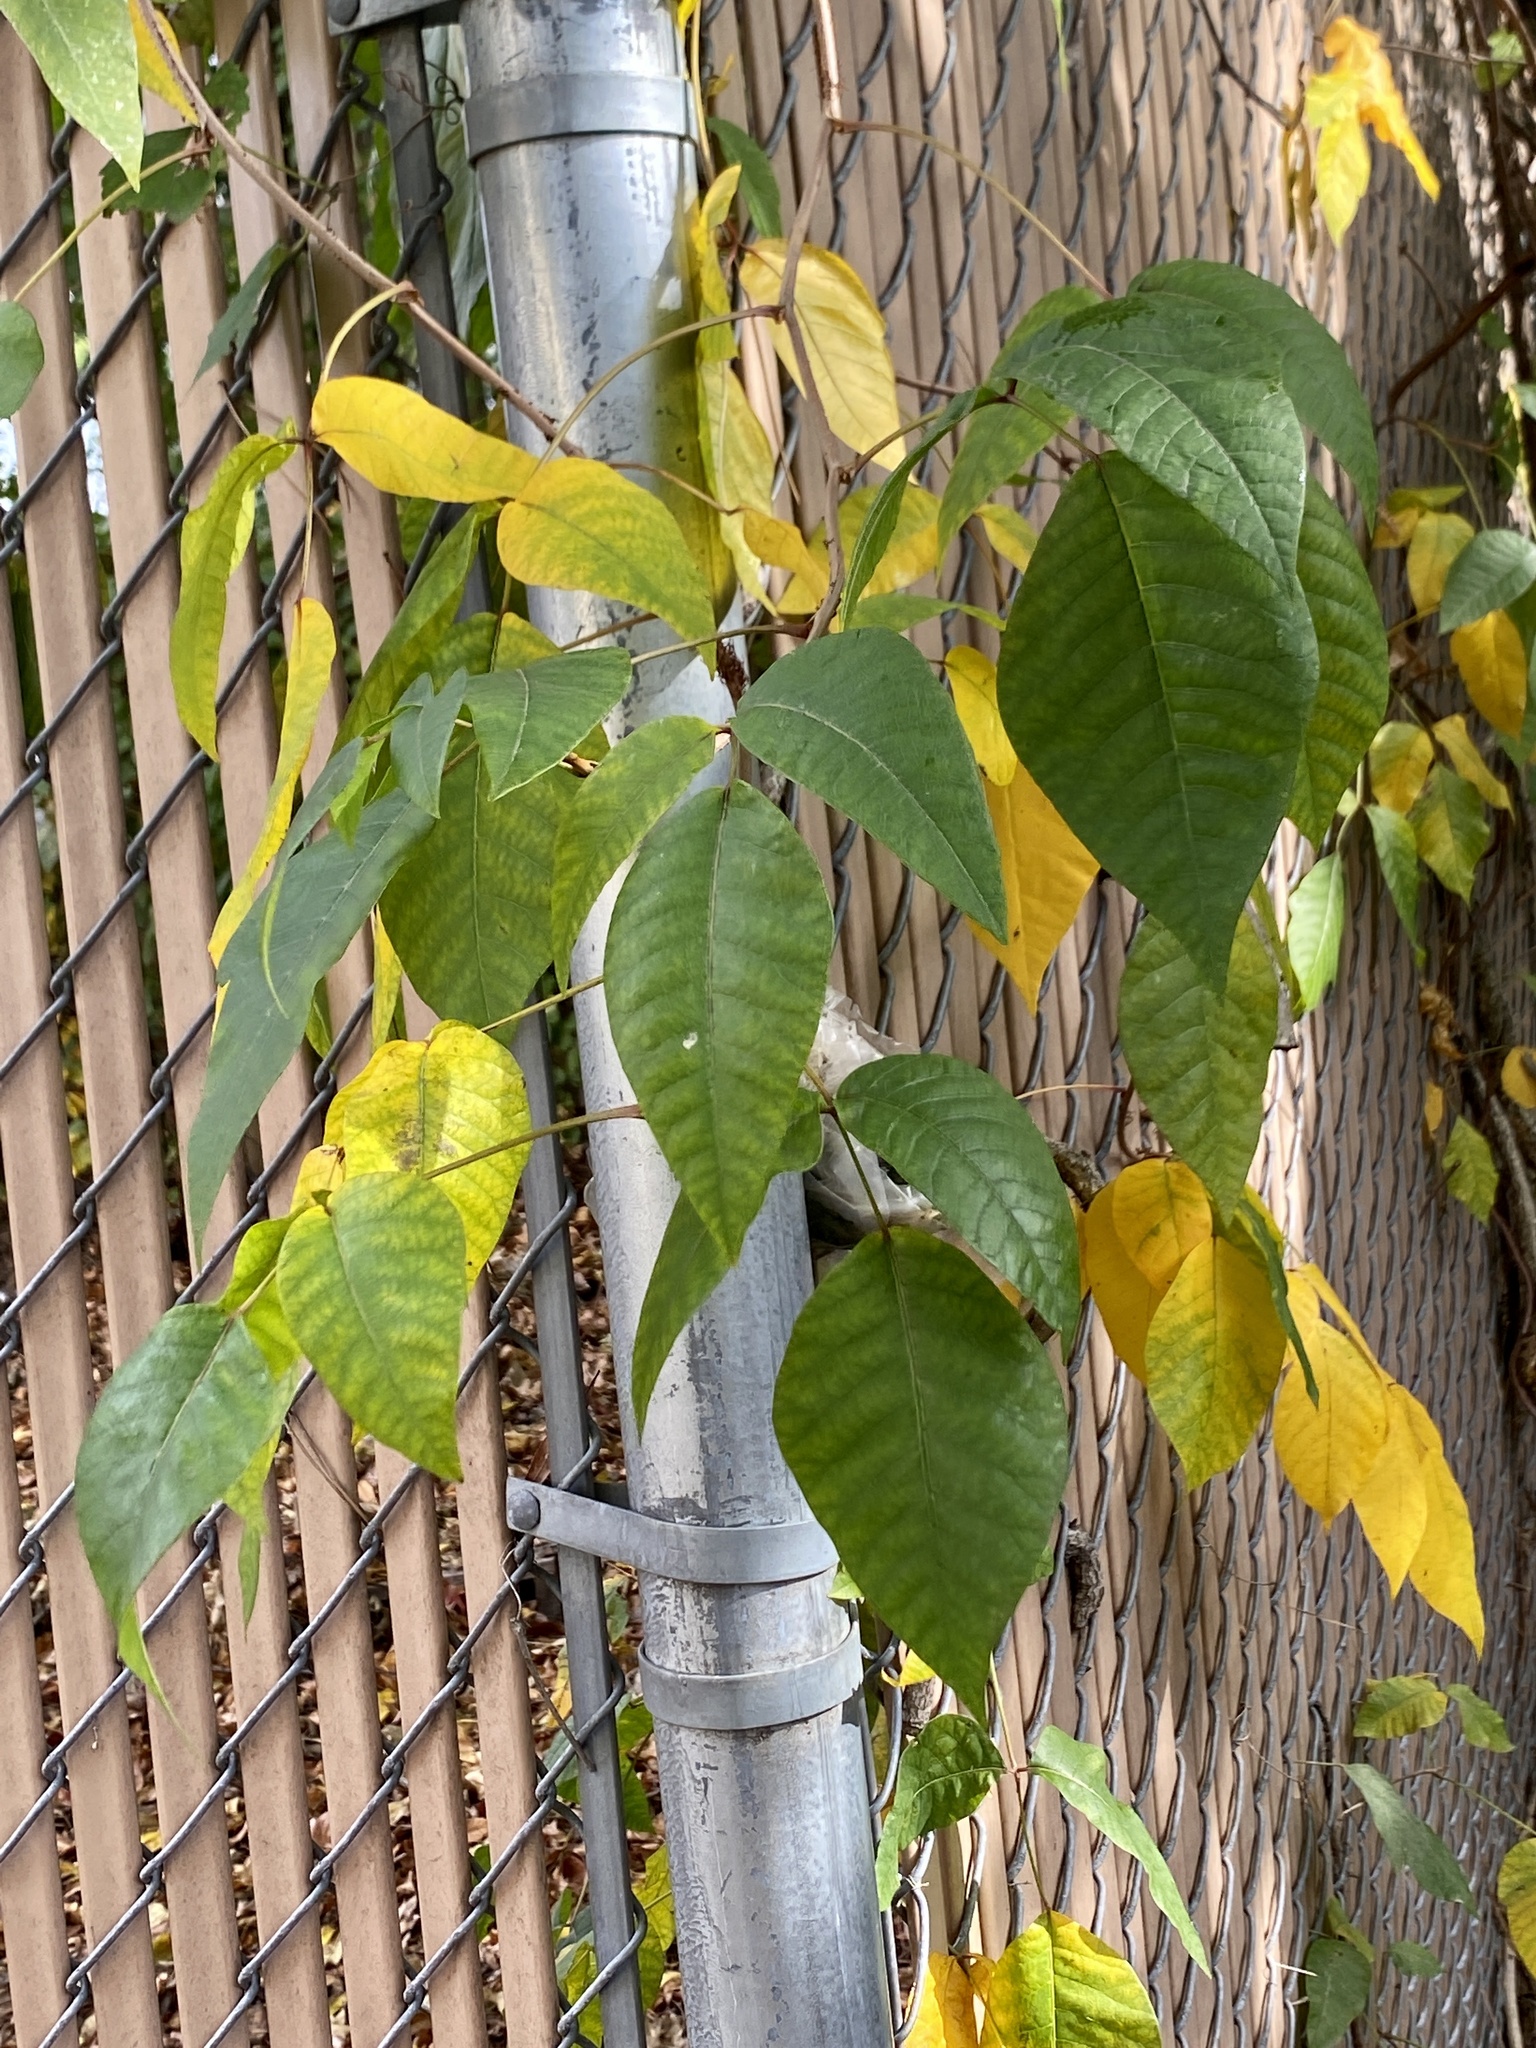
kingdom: Plantae
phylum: Tracheophyta
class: Magnoliopsida
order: Sapindales
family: Anacardiaceae
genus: Toxicodendron
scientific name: Toxicodendron radicans
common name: Poison ivy
